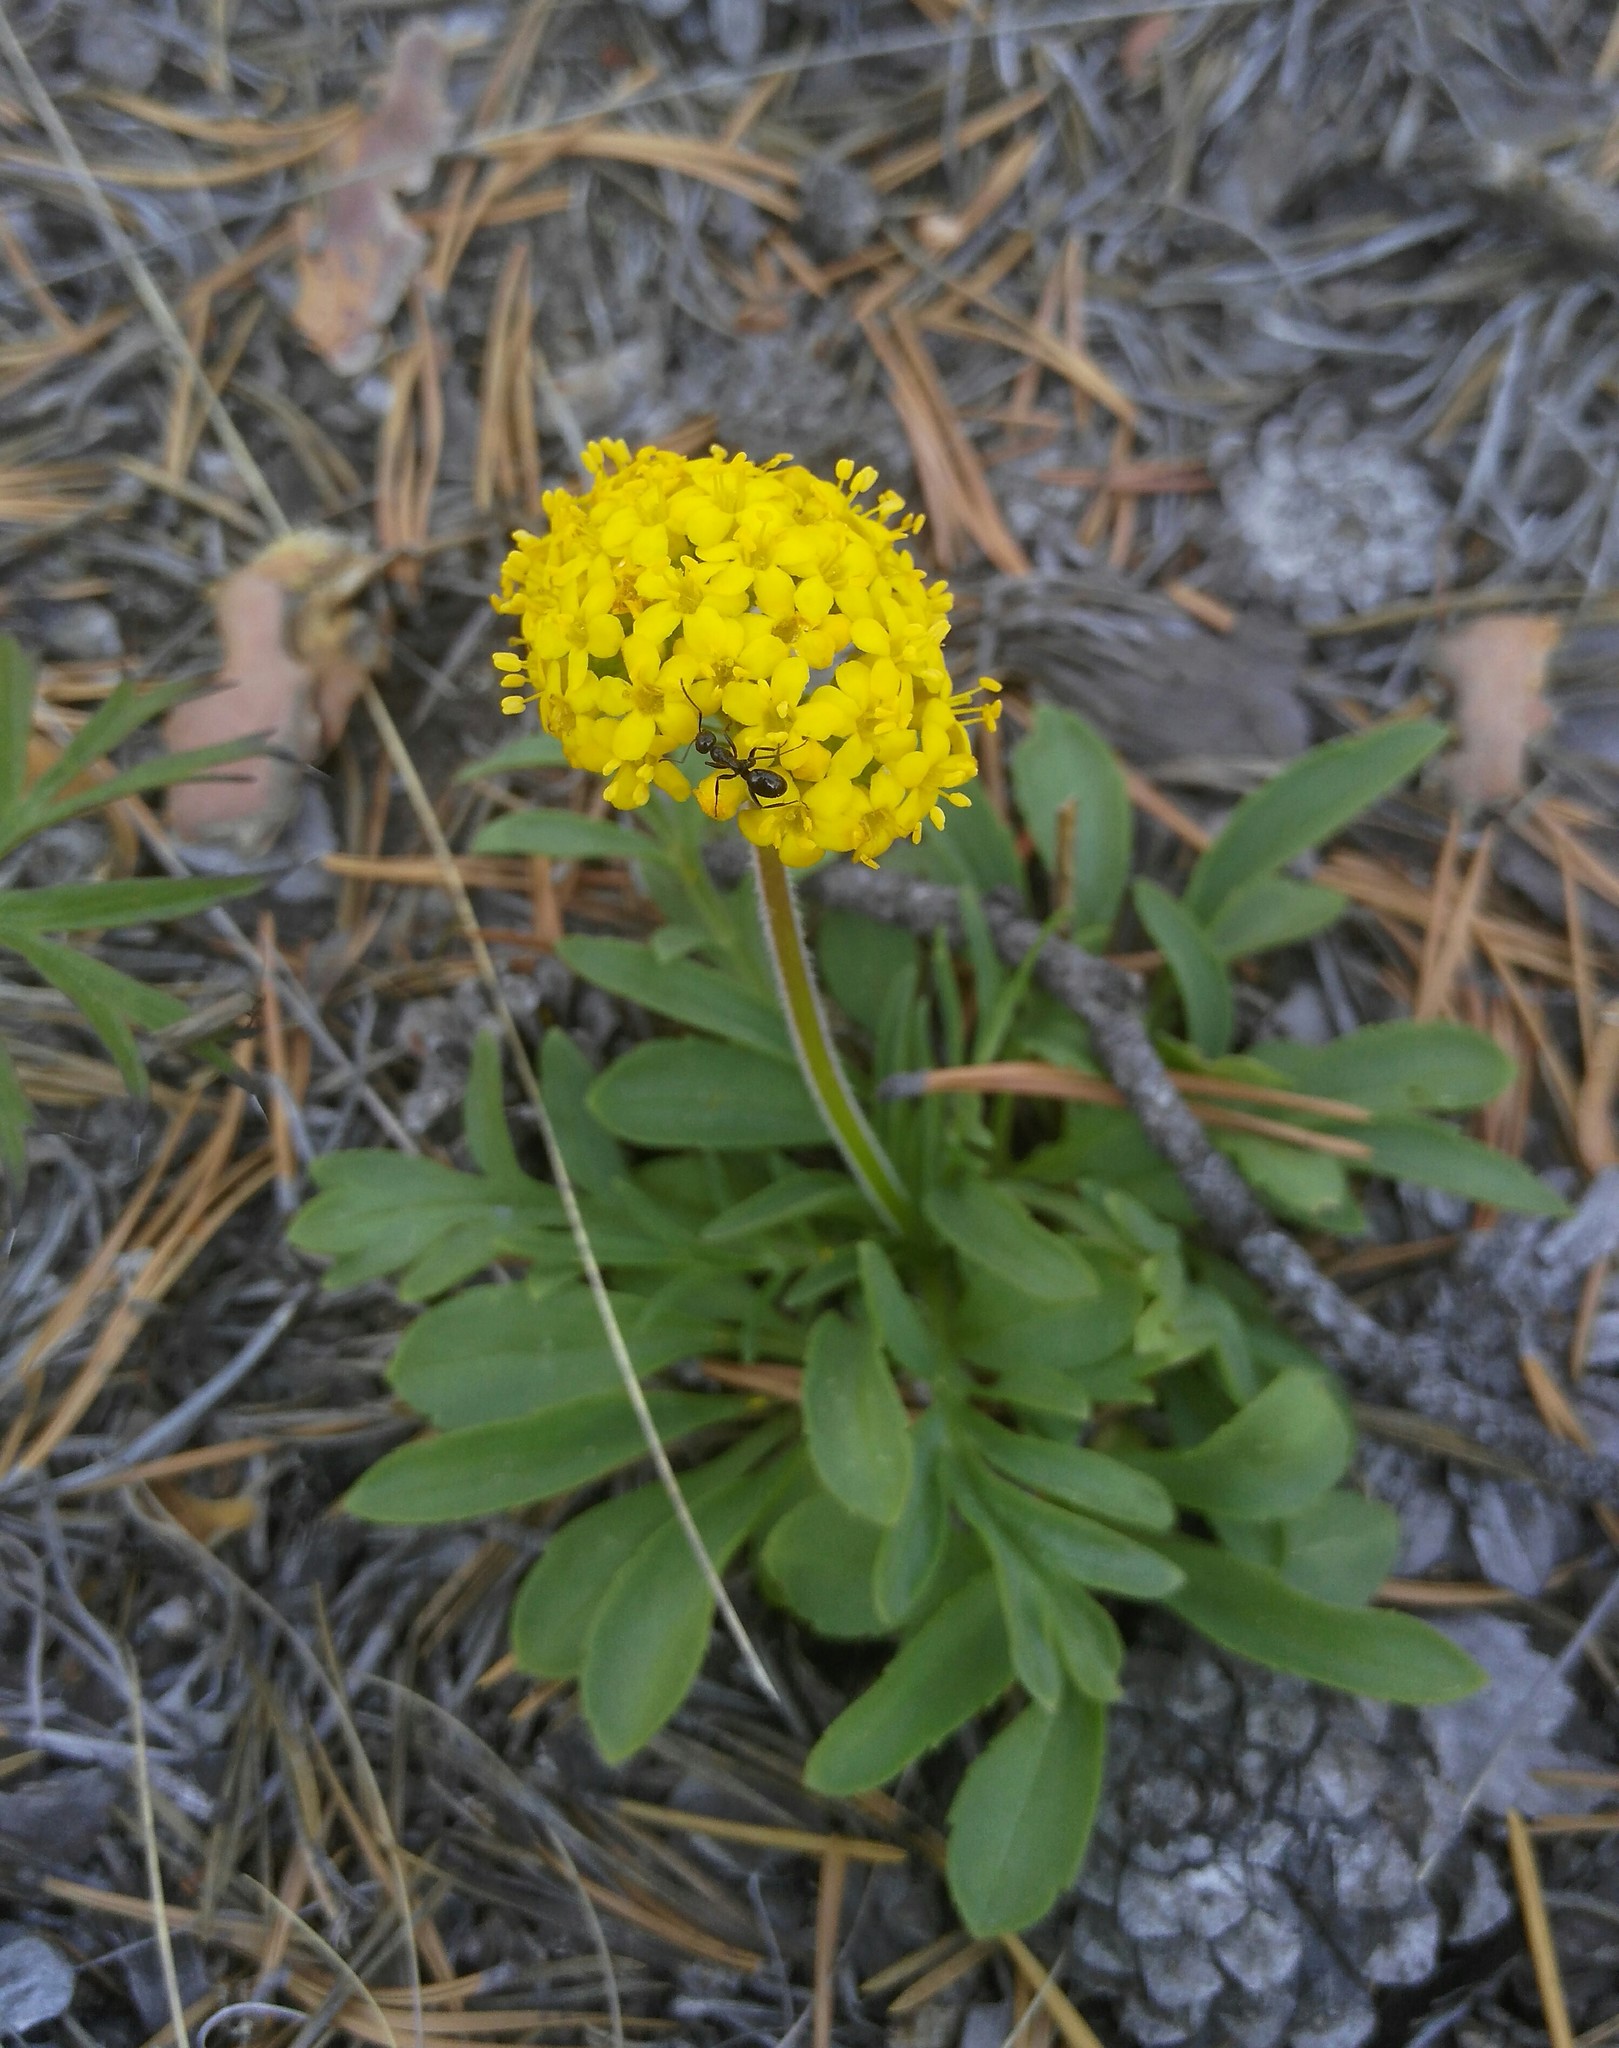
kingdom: Plantae
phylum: Tracheophyta
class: Magnoliopsida
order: Dipsacales
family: Caprifoliaceae
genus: Patrinia
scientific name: Patrinia sibirica
